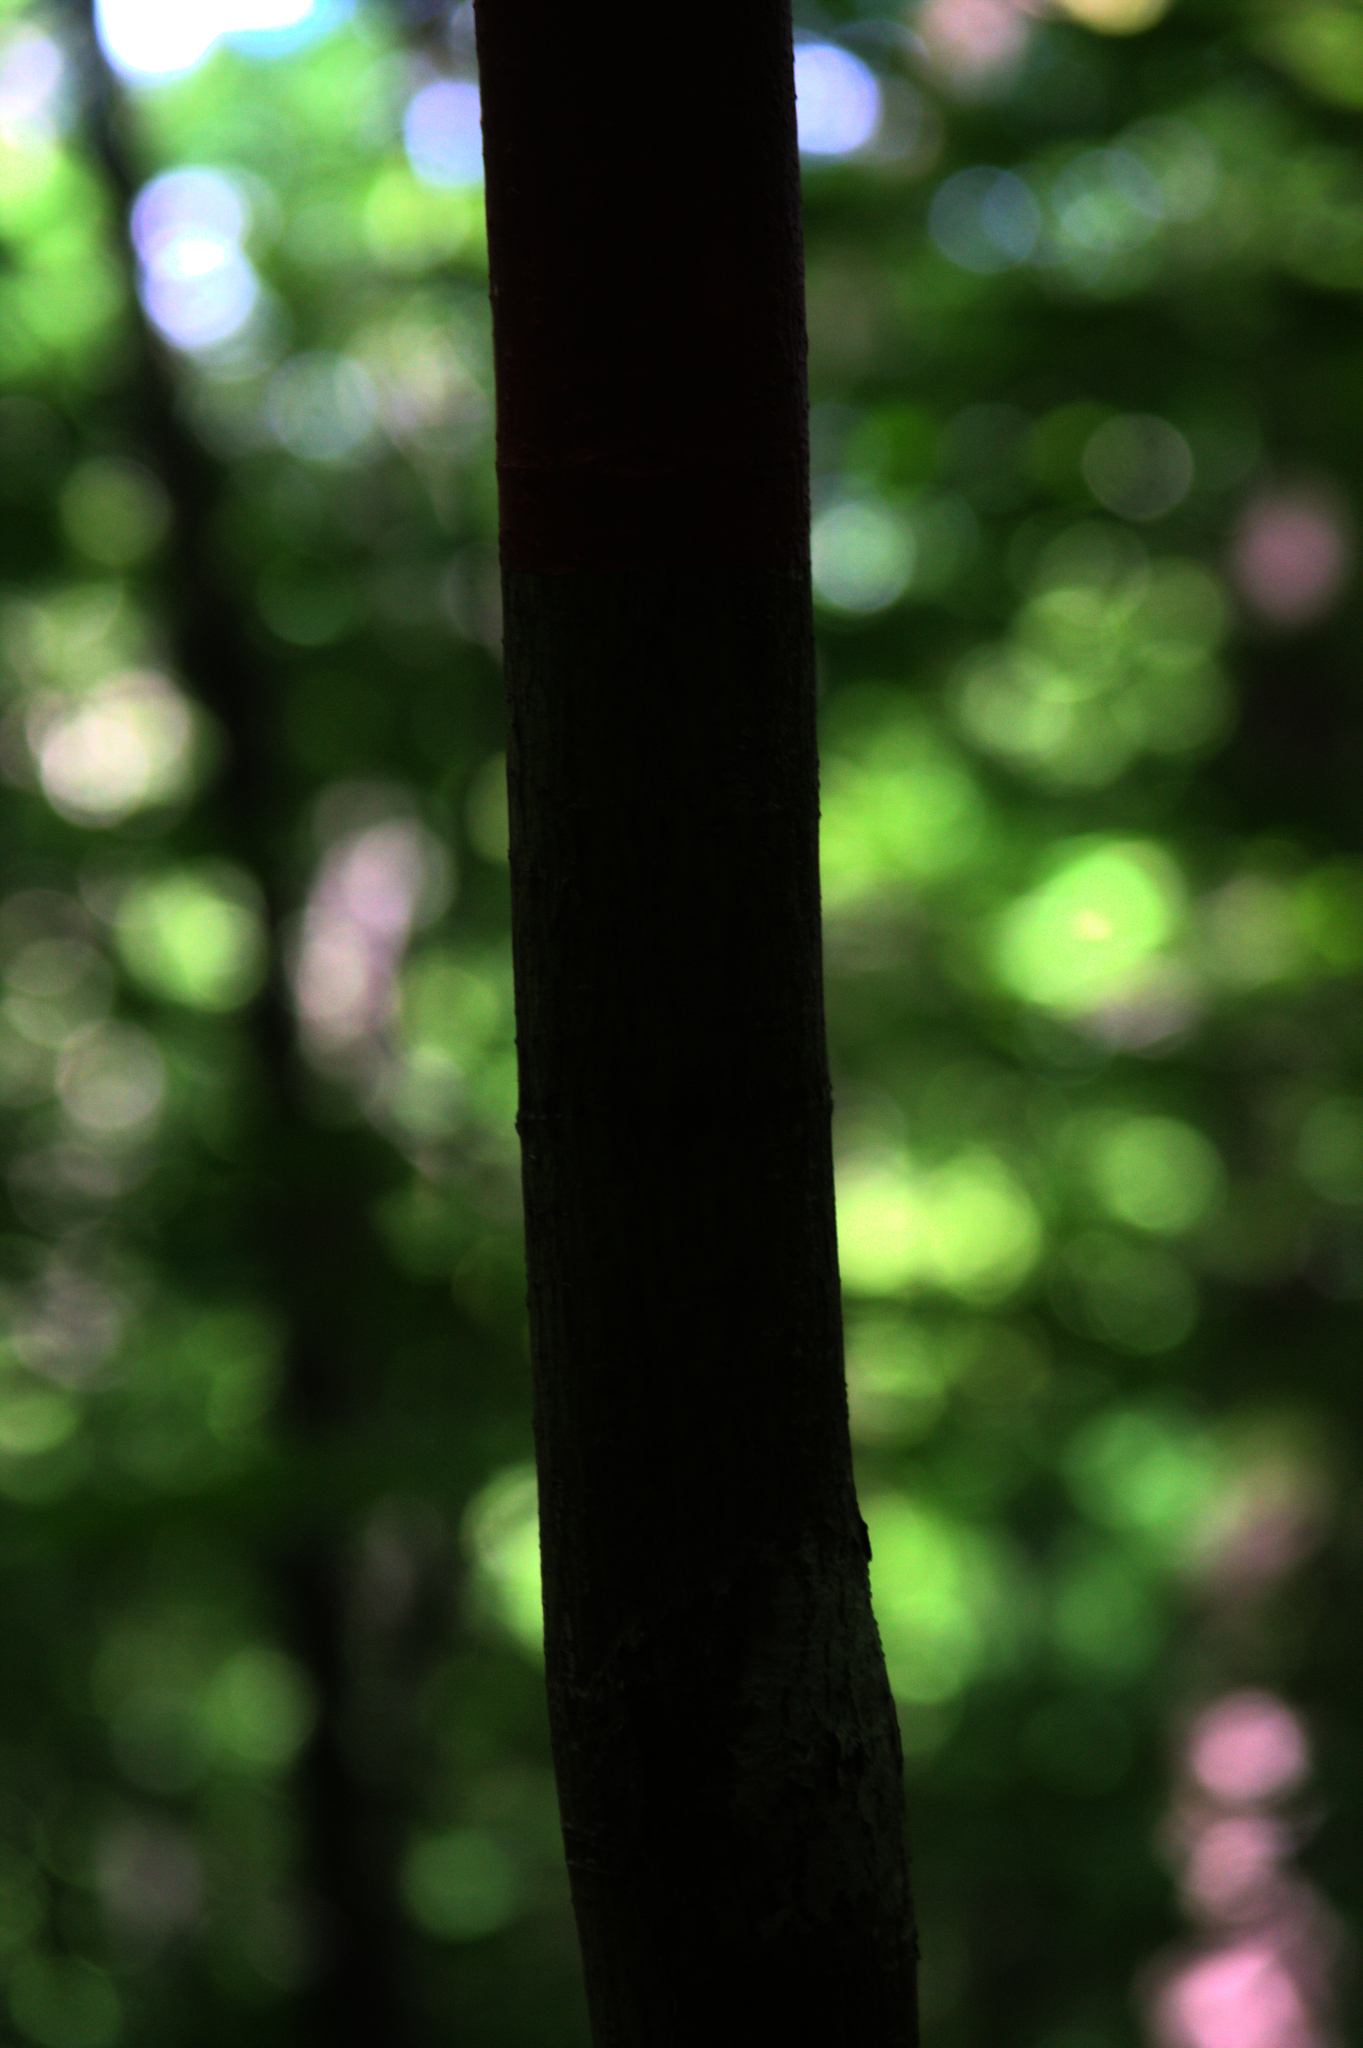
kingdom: Plantae
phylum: Tracheophyta
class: Magnoliopsida
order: Sapindales
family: Sapindaceae
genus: Acer
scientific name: Acer pensylvanicum
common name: Moosewood
